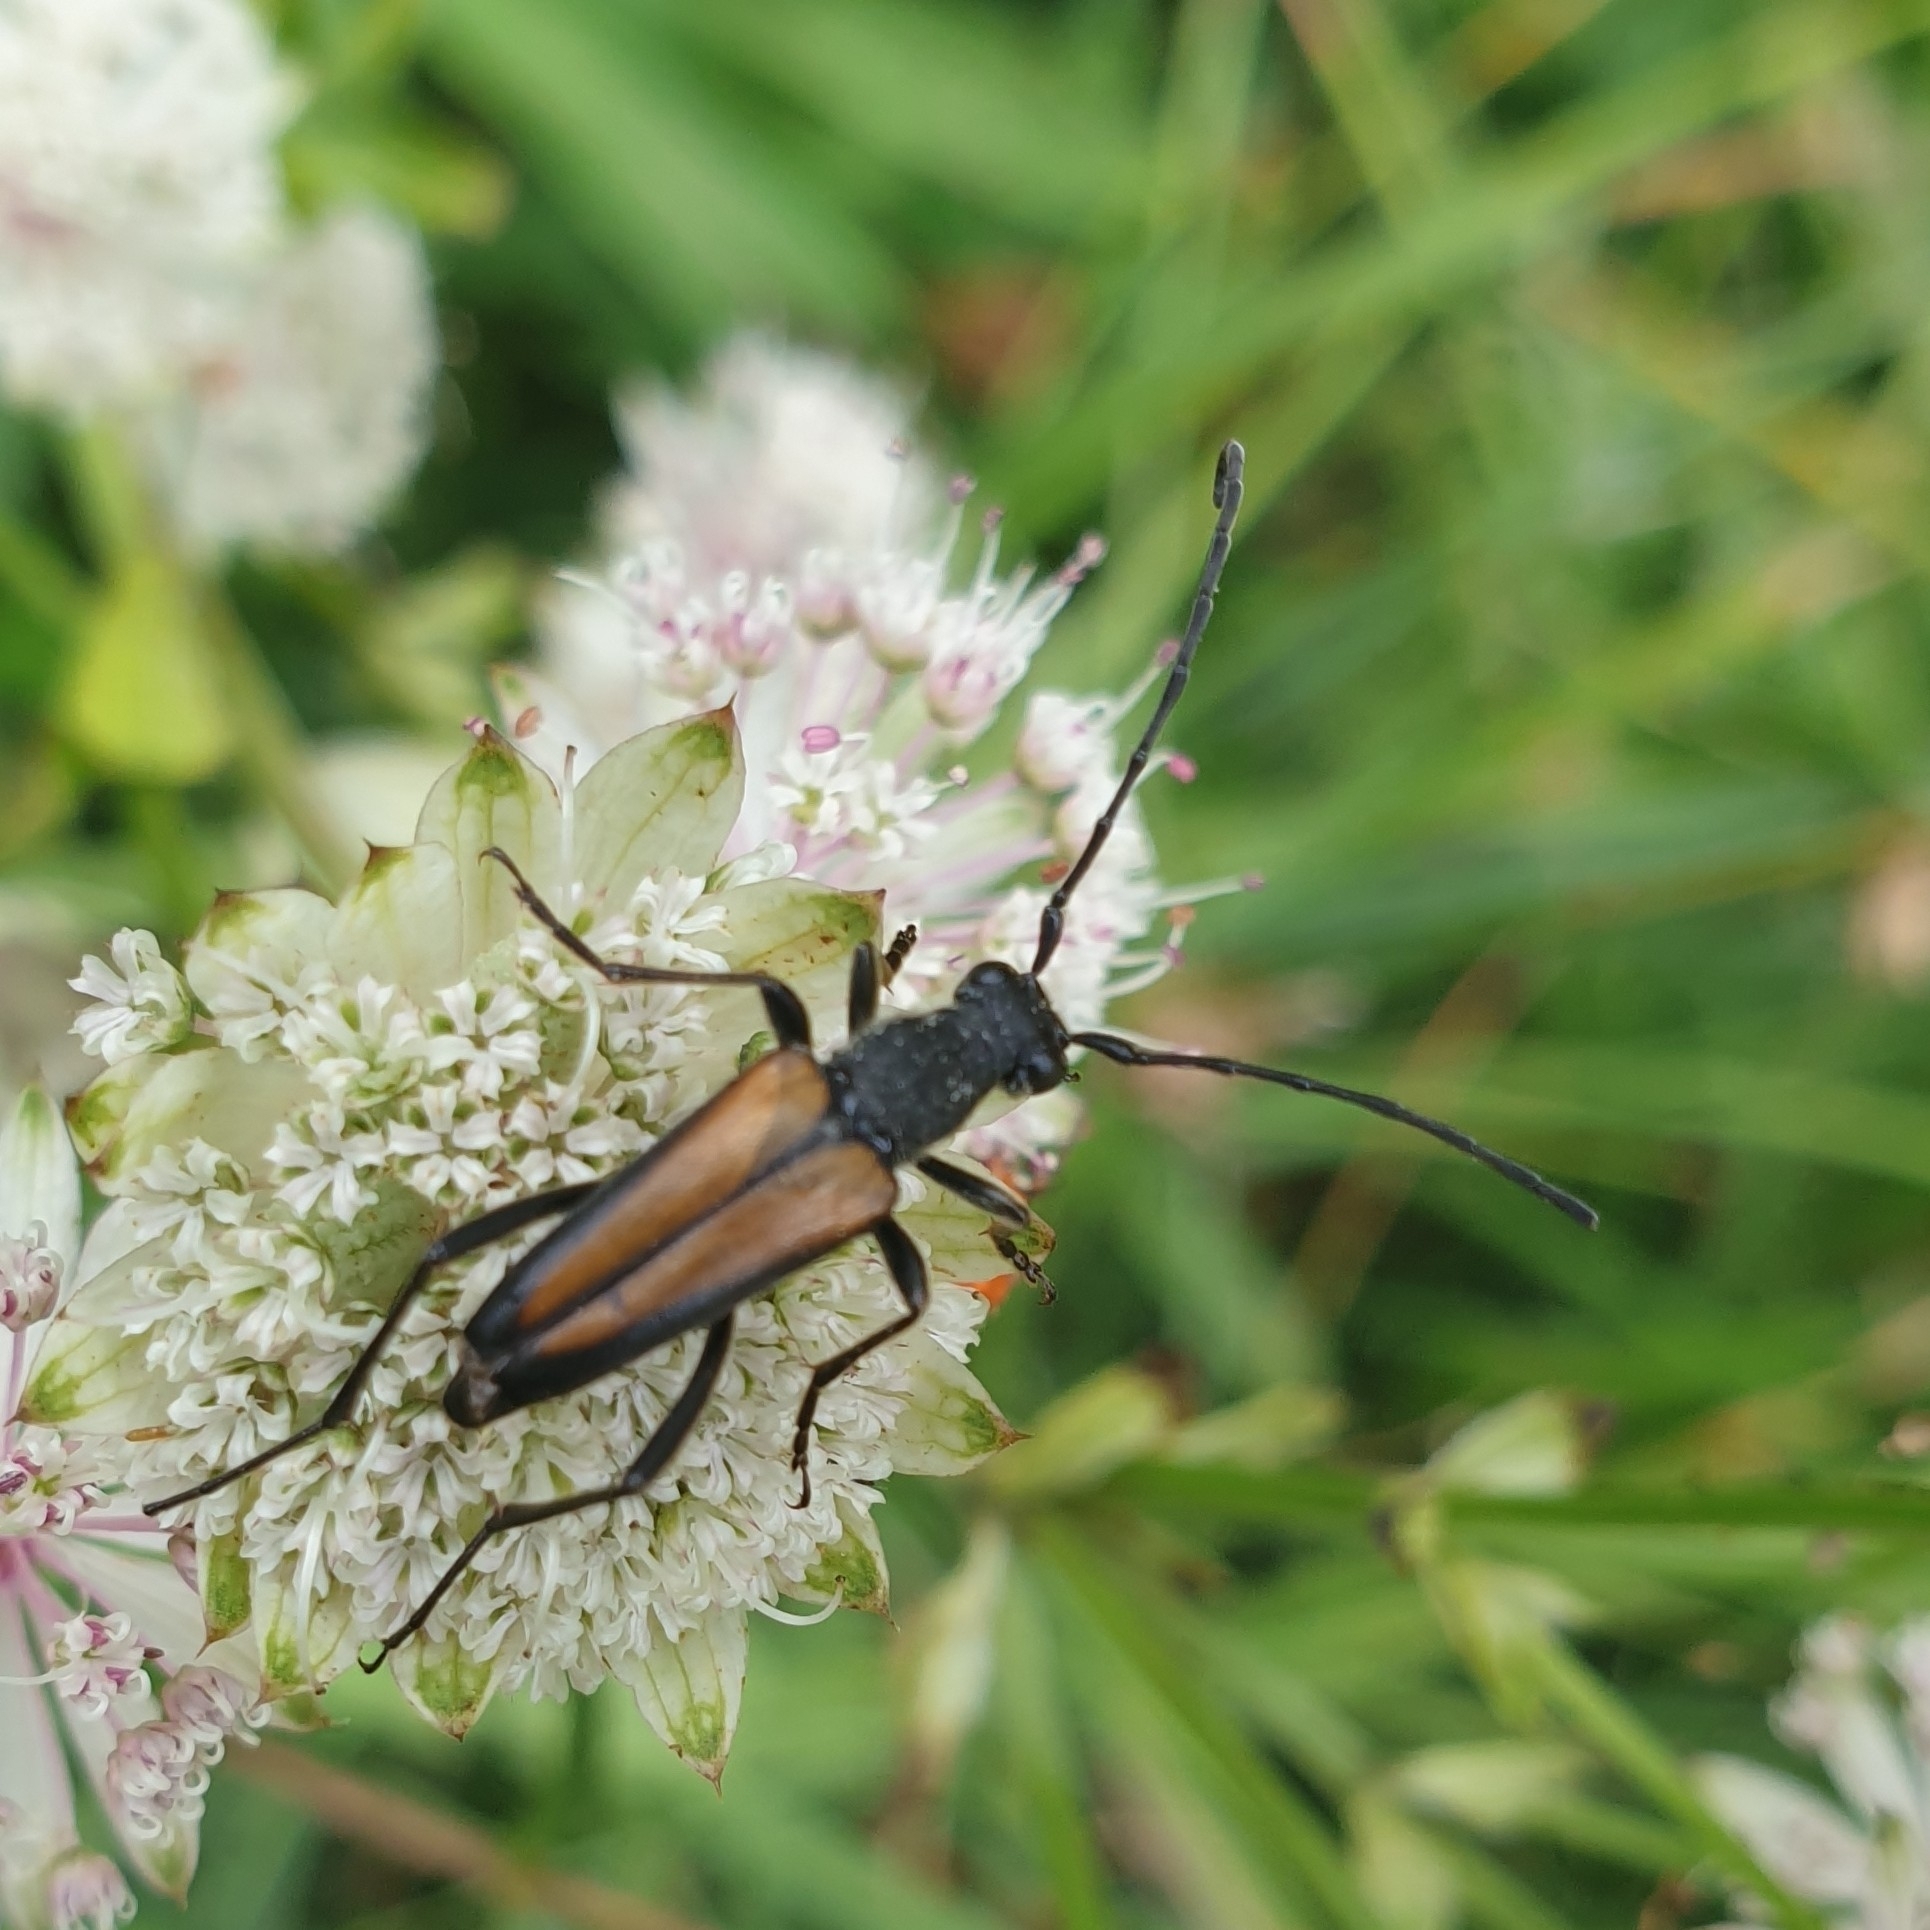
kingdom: Animalia
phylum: Arthropoda
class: Insecta
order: Coleoptera
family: Cerambycidae
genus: Anastrangalia
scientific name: Anastrangalia dubia
